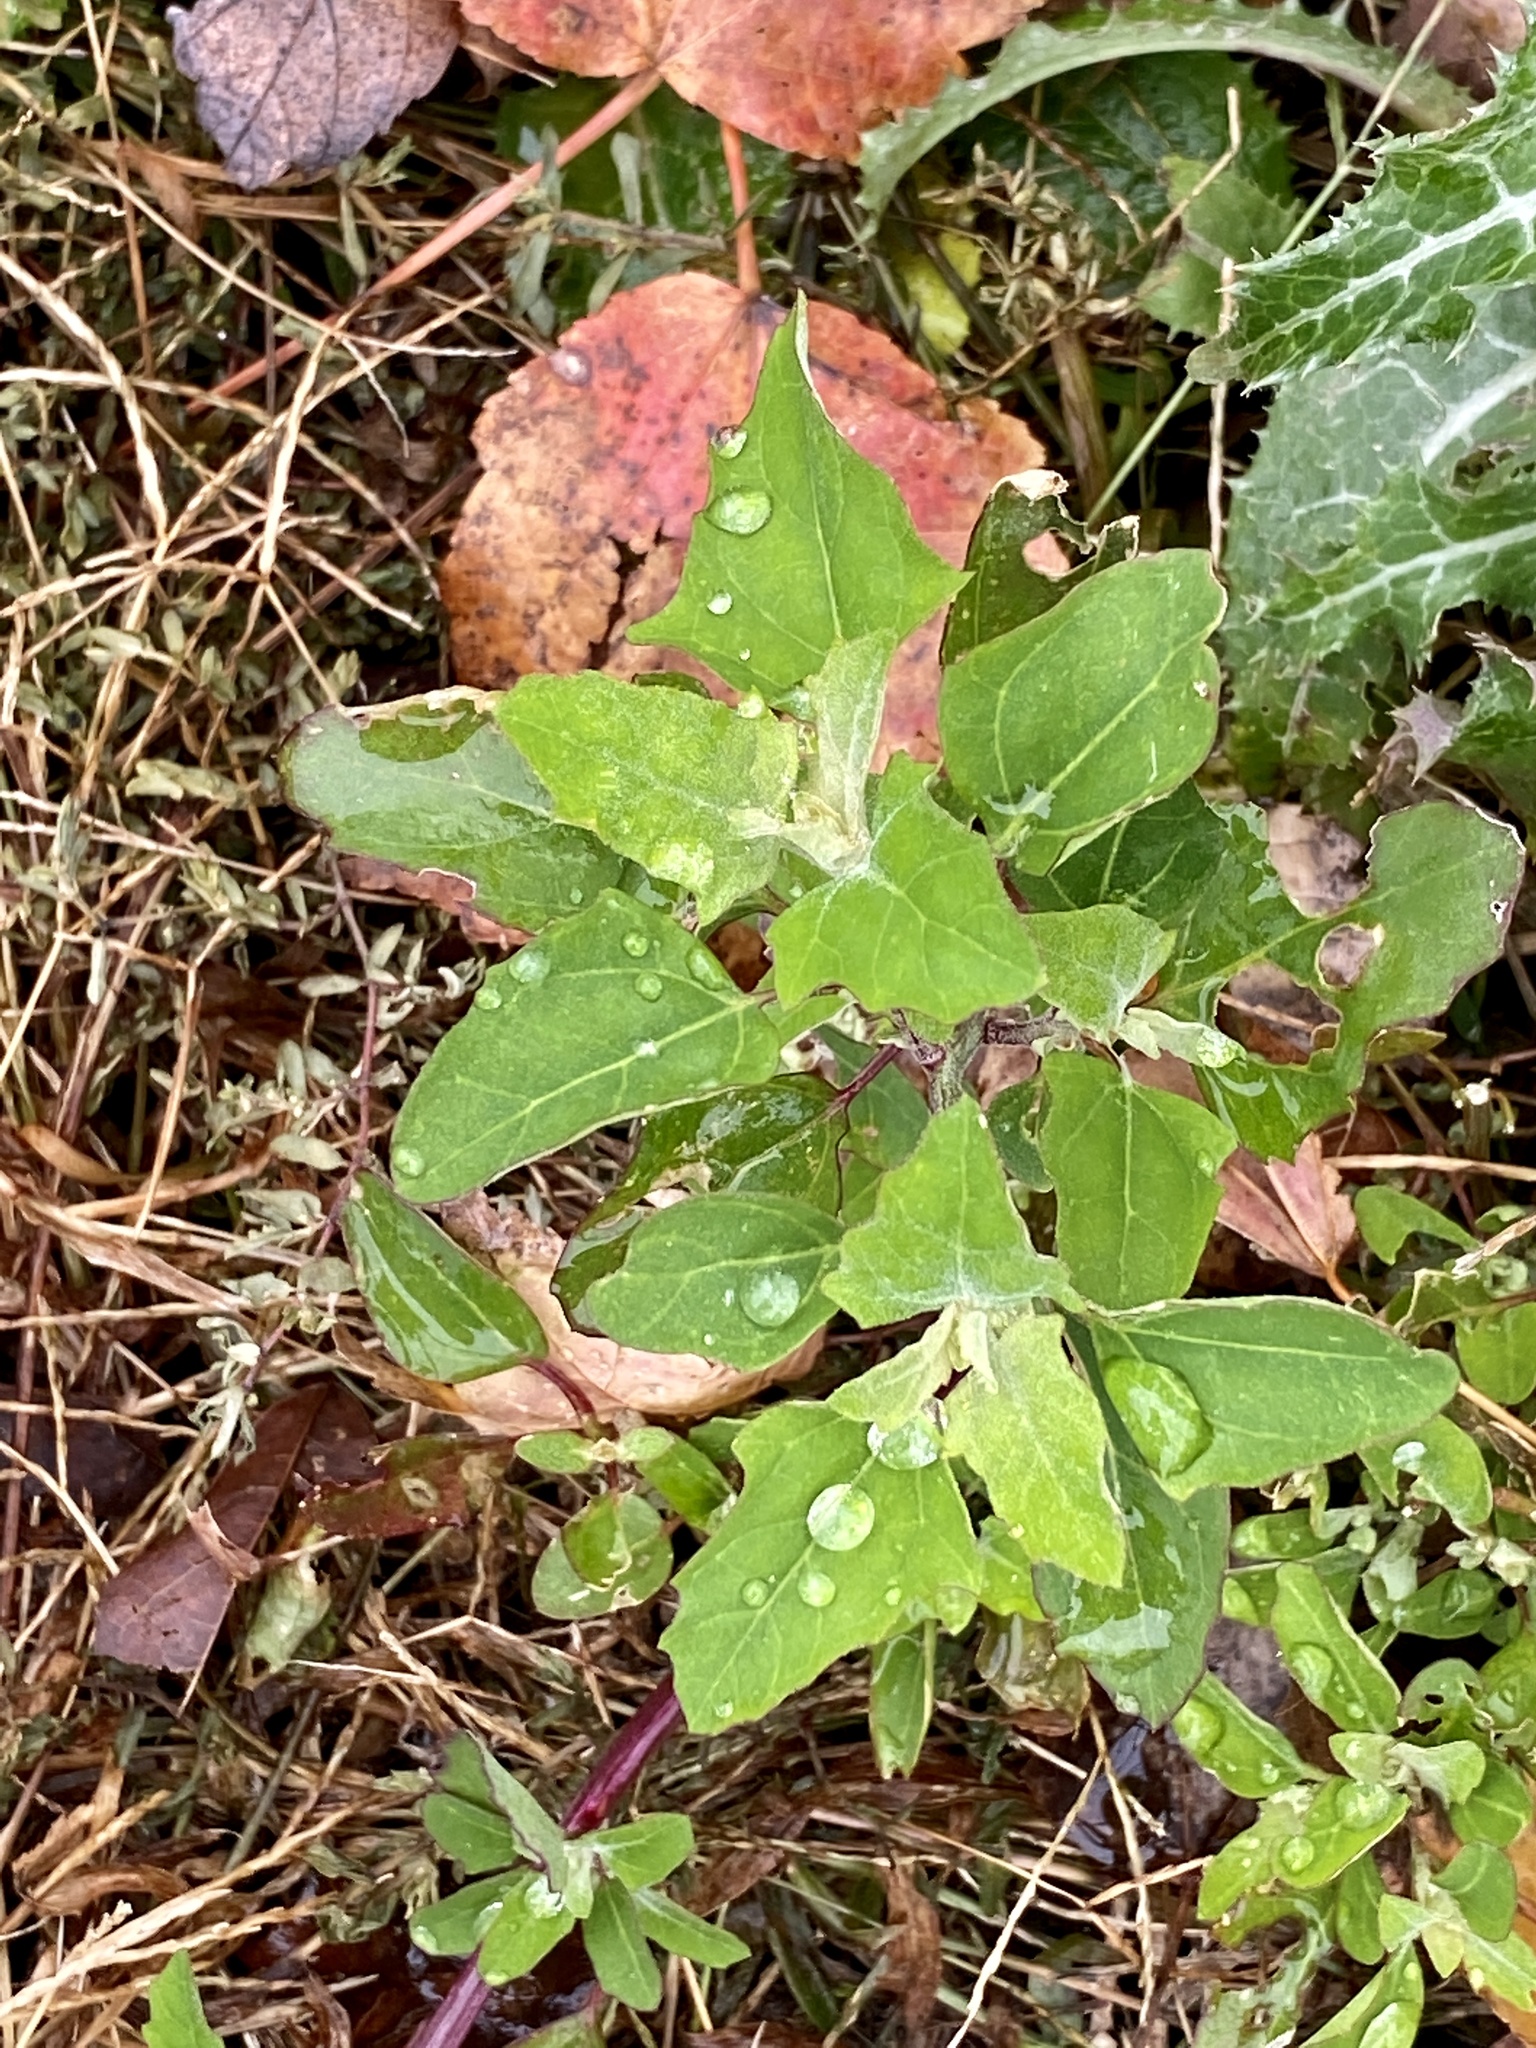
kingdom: Plantae
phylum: Tracheophyta
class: Magnoliopsida
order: Caryophyllales
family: Amaranthaceae
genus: Chenopodium
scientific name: Chenopodium album
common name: Fat-hen
